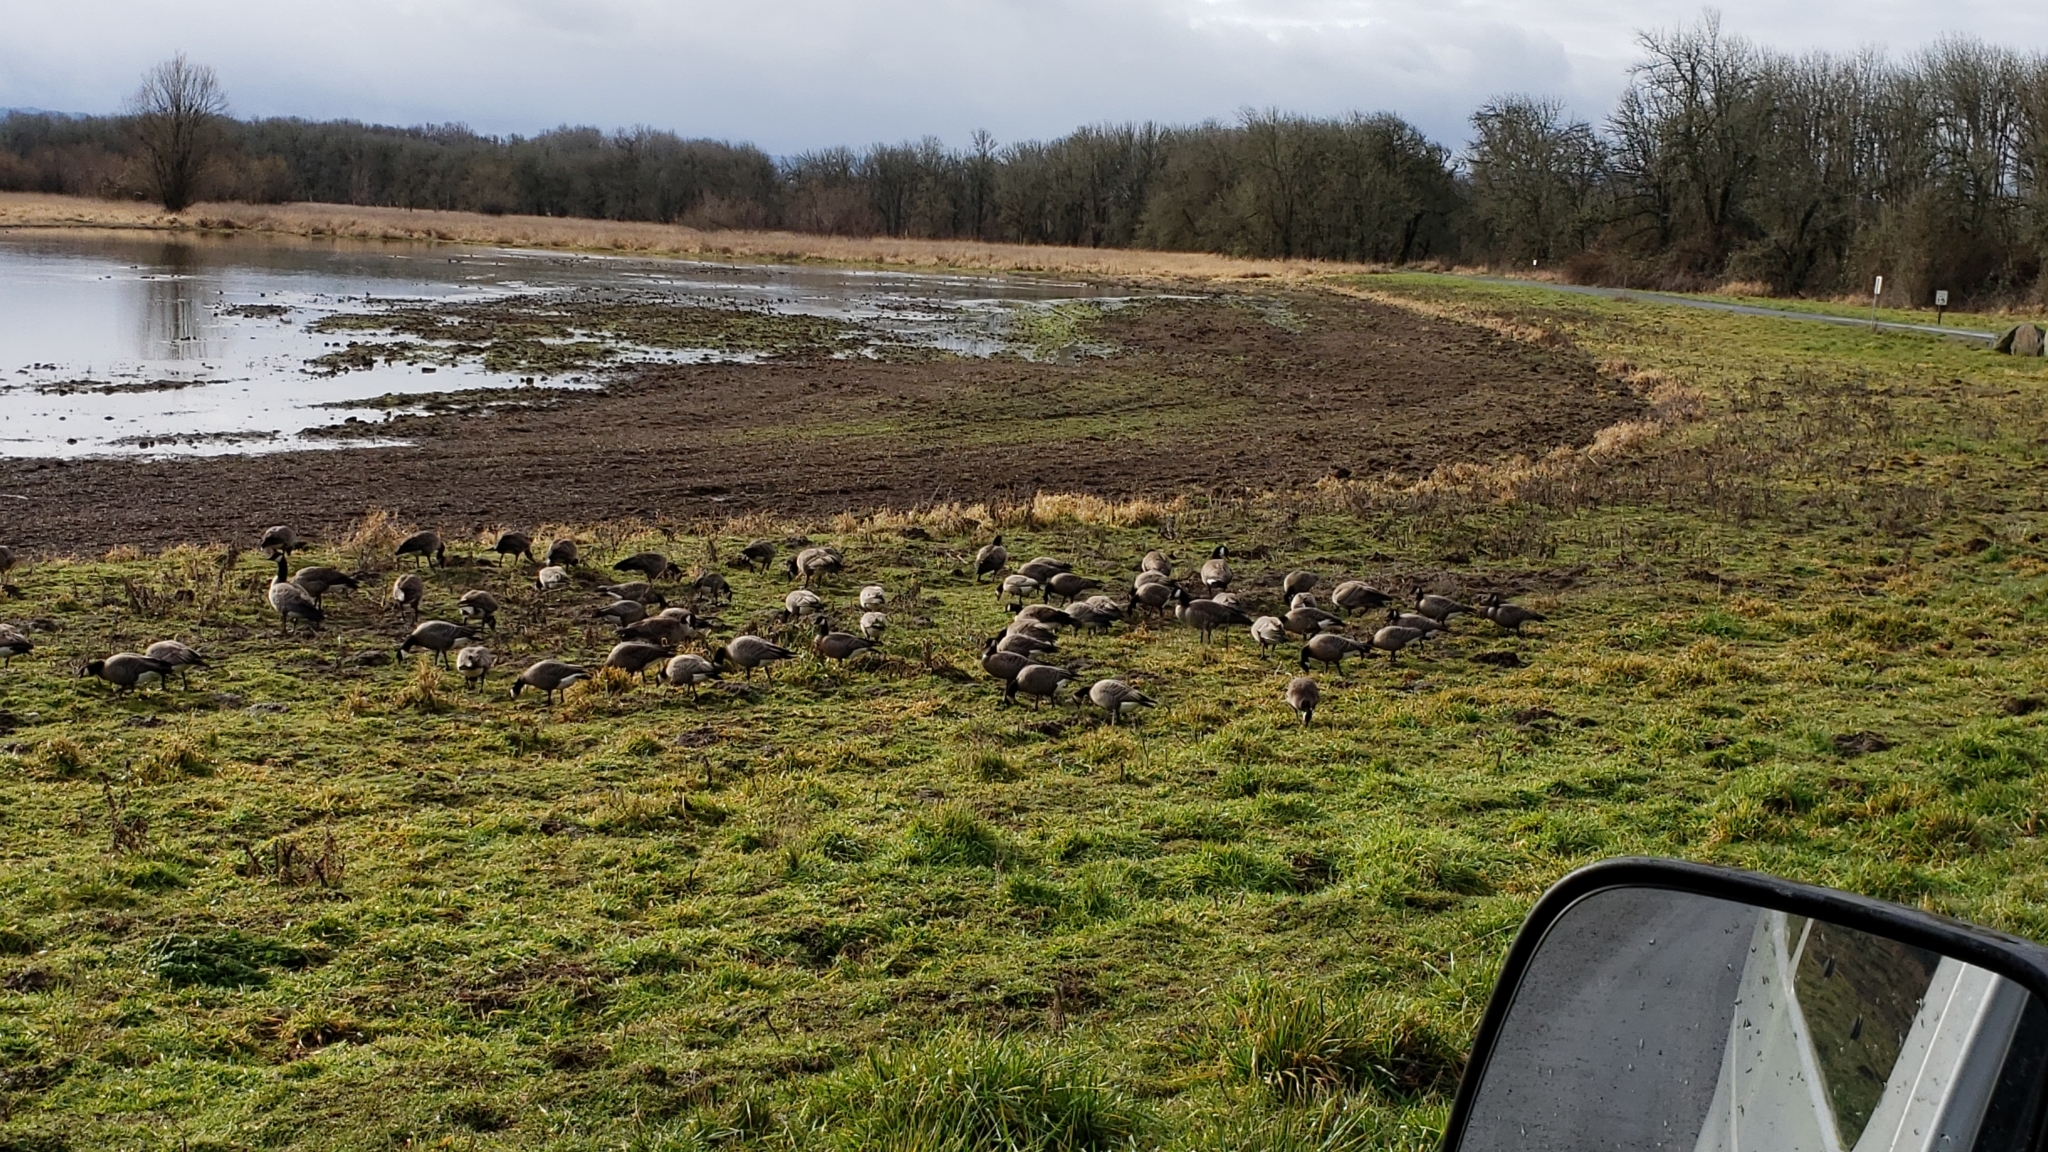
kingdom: Animalia
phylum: Chordata
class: Aves
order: Anseriformes
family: Anatidae
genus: Branta
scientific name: Branta hutchinsii
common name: Cackling goose
